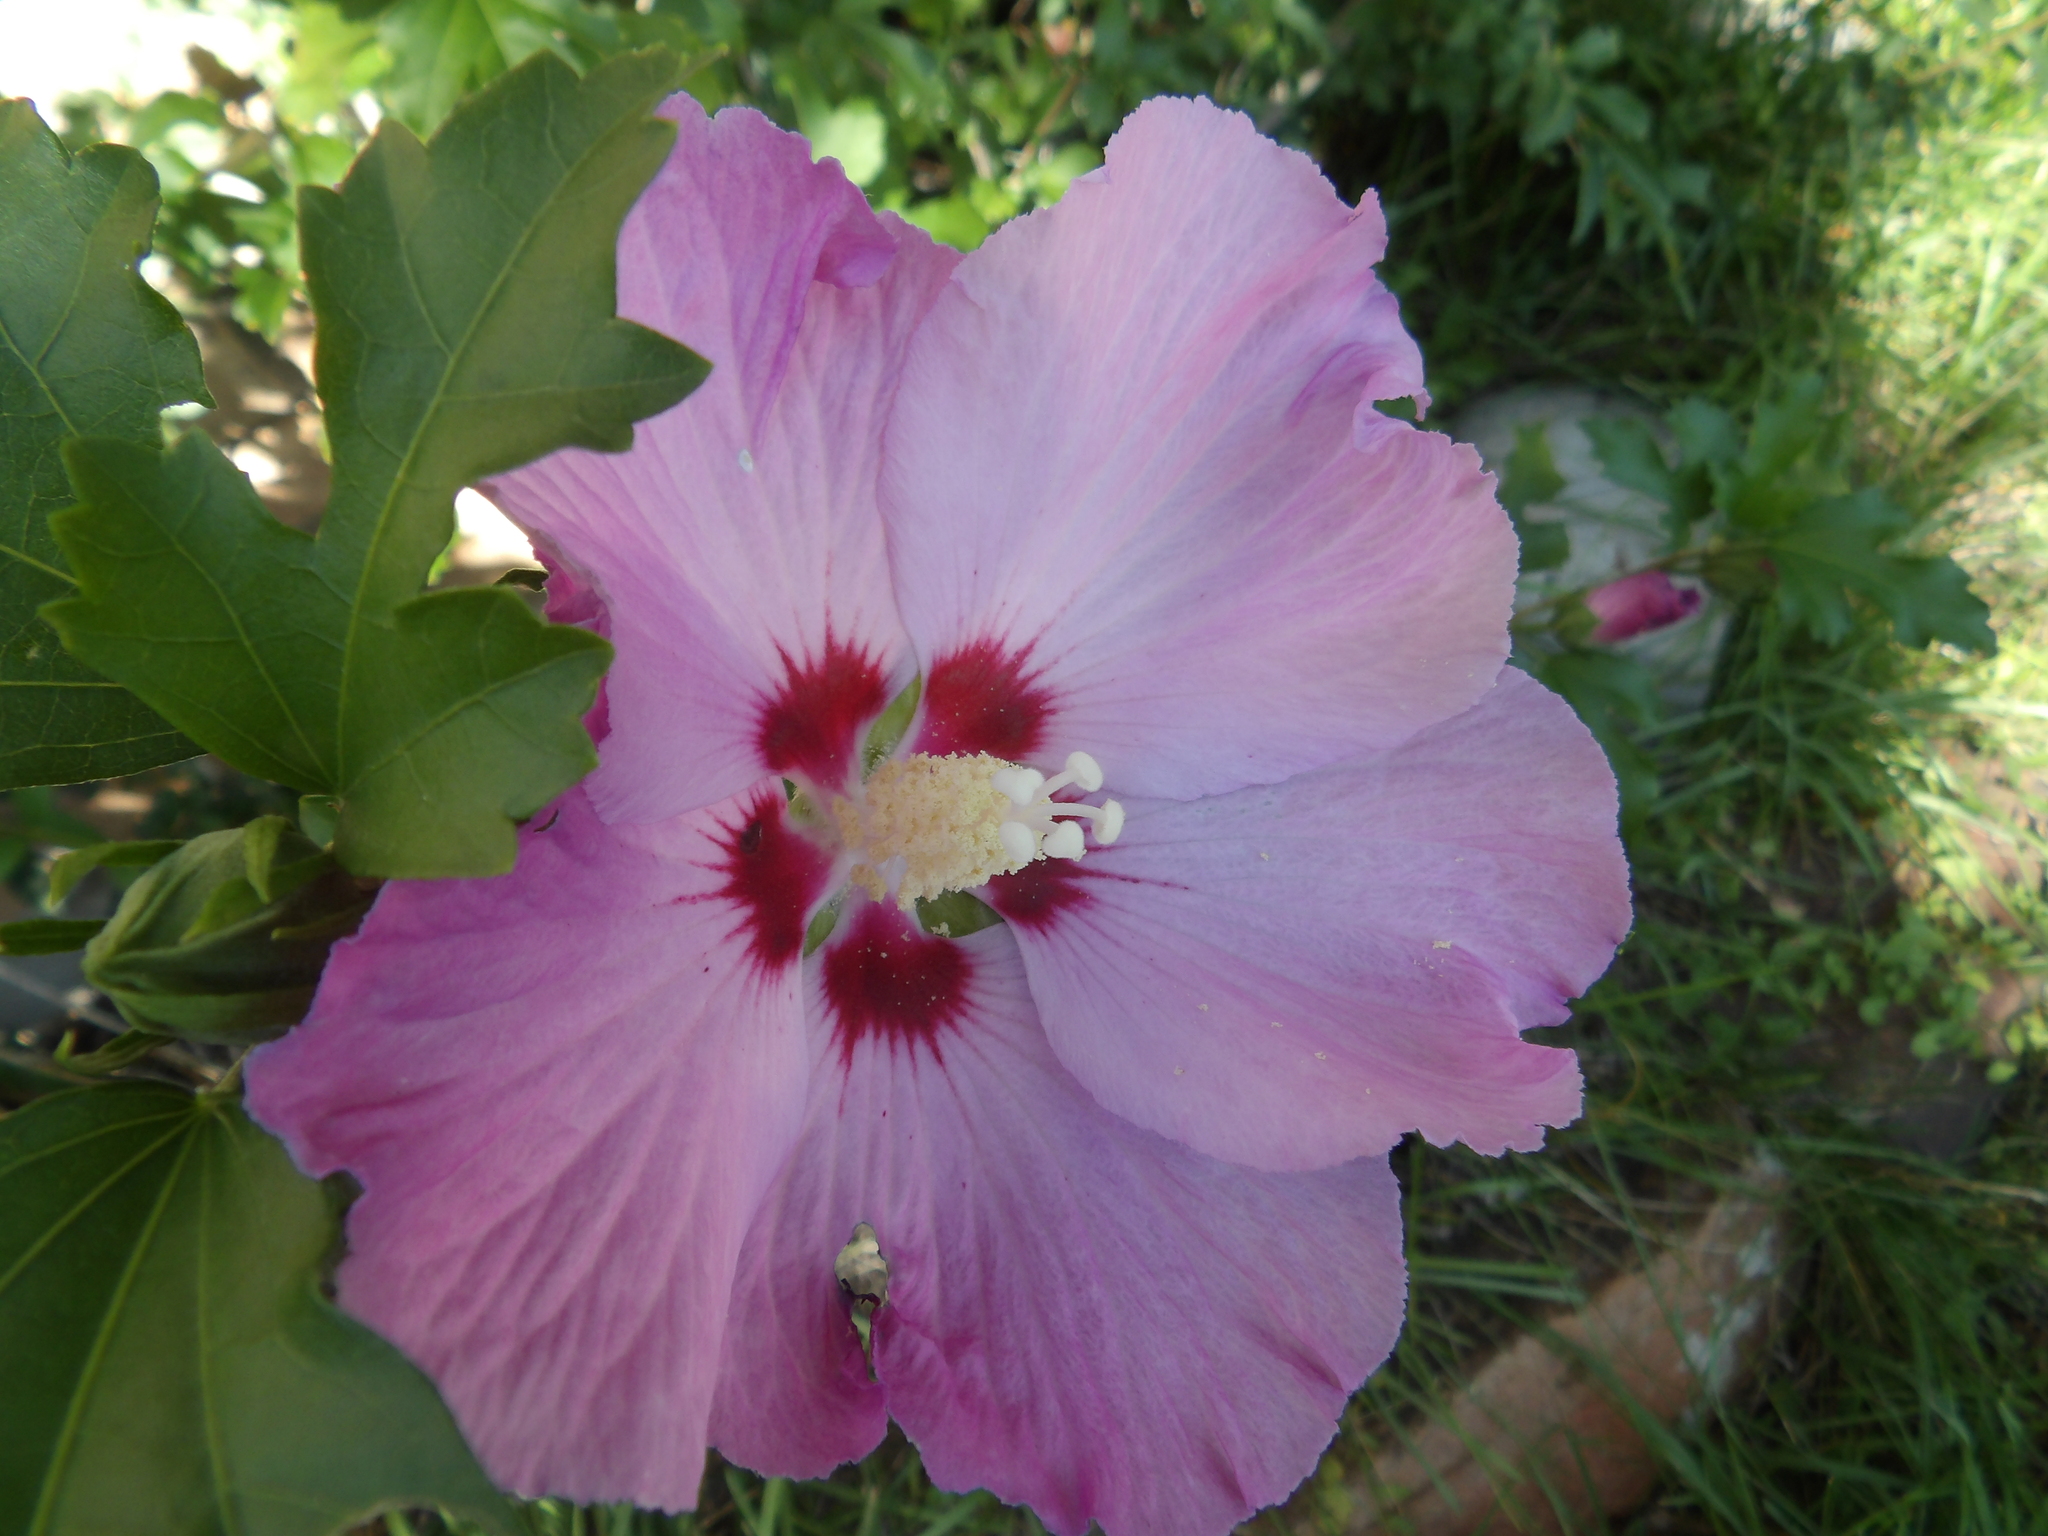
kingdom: Plantae
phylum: Tracheophyta
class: Magnoliopsida
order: Malvales
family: Malvaceae
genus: Hibiscus
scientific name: Hibiscus syriacus
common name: Syrian ketmia
